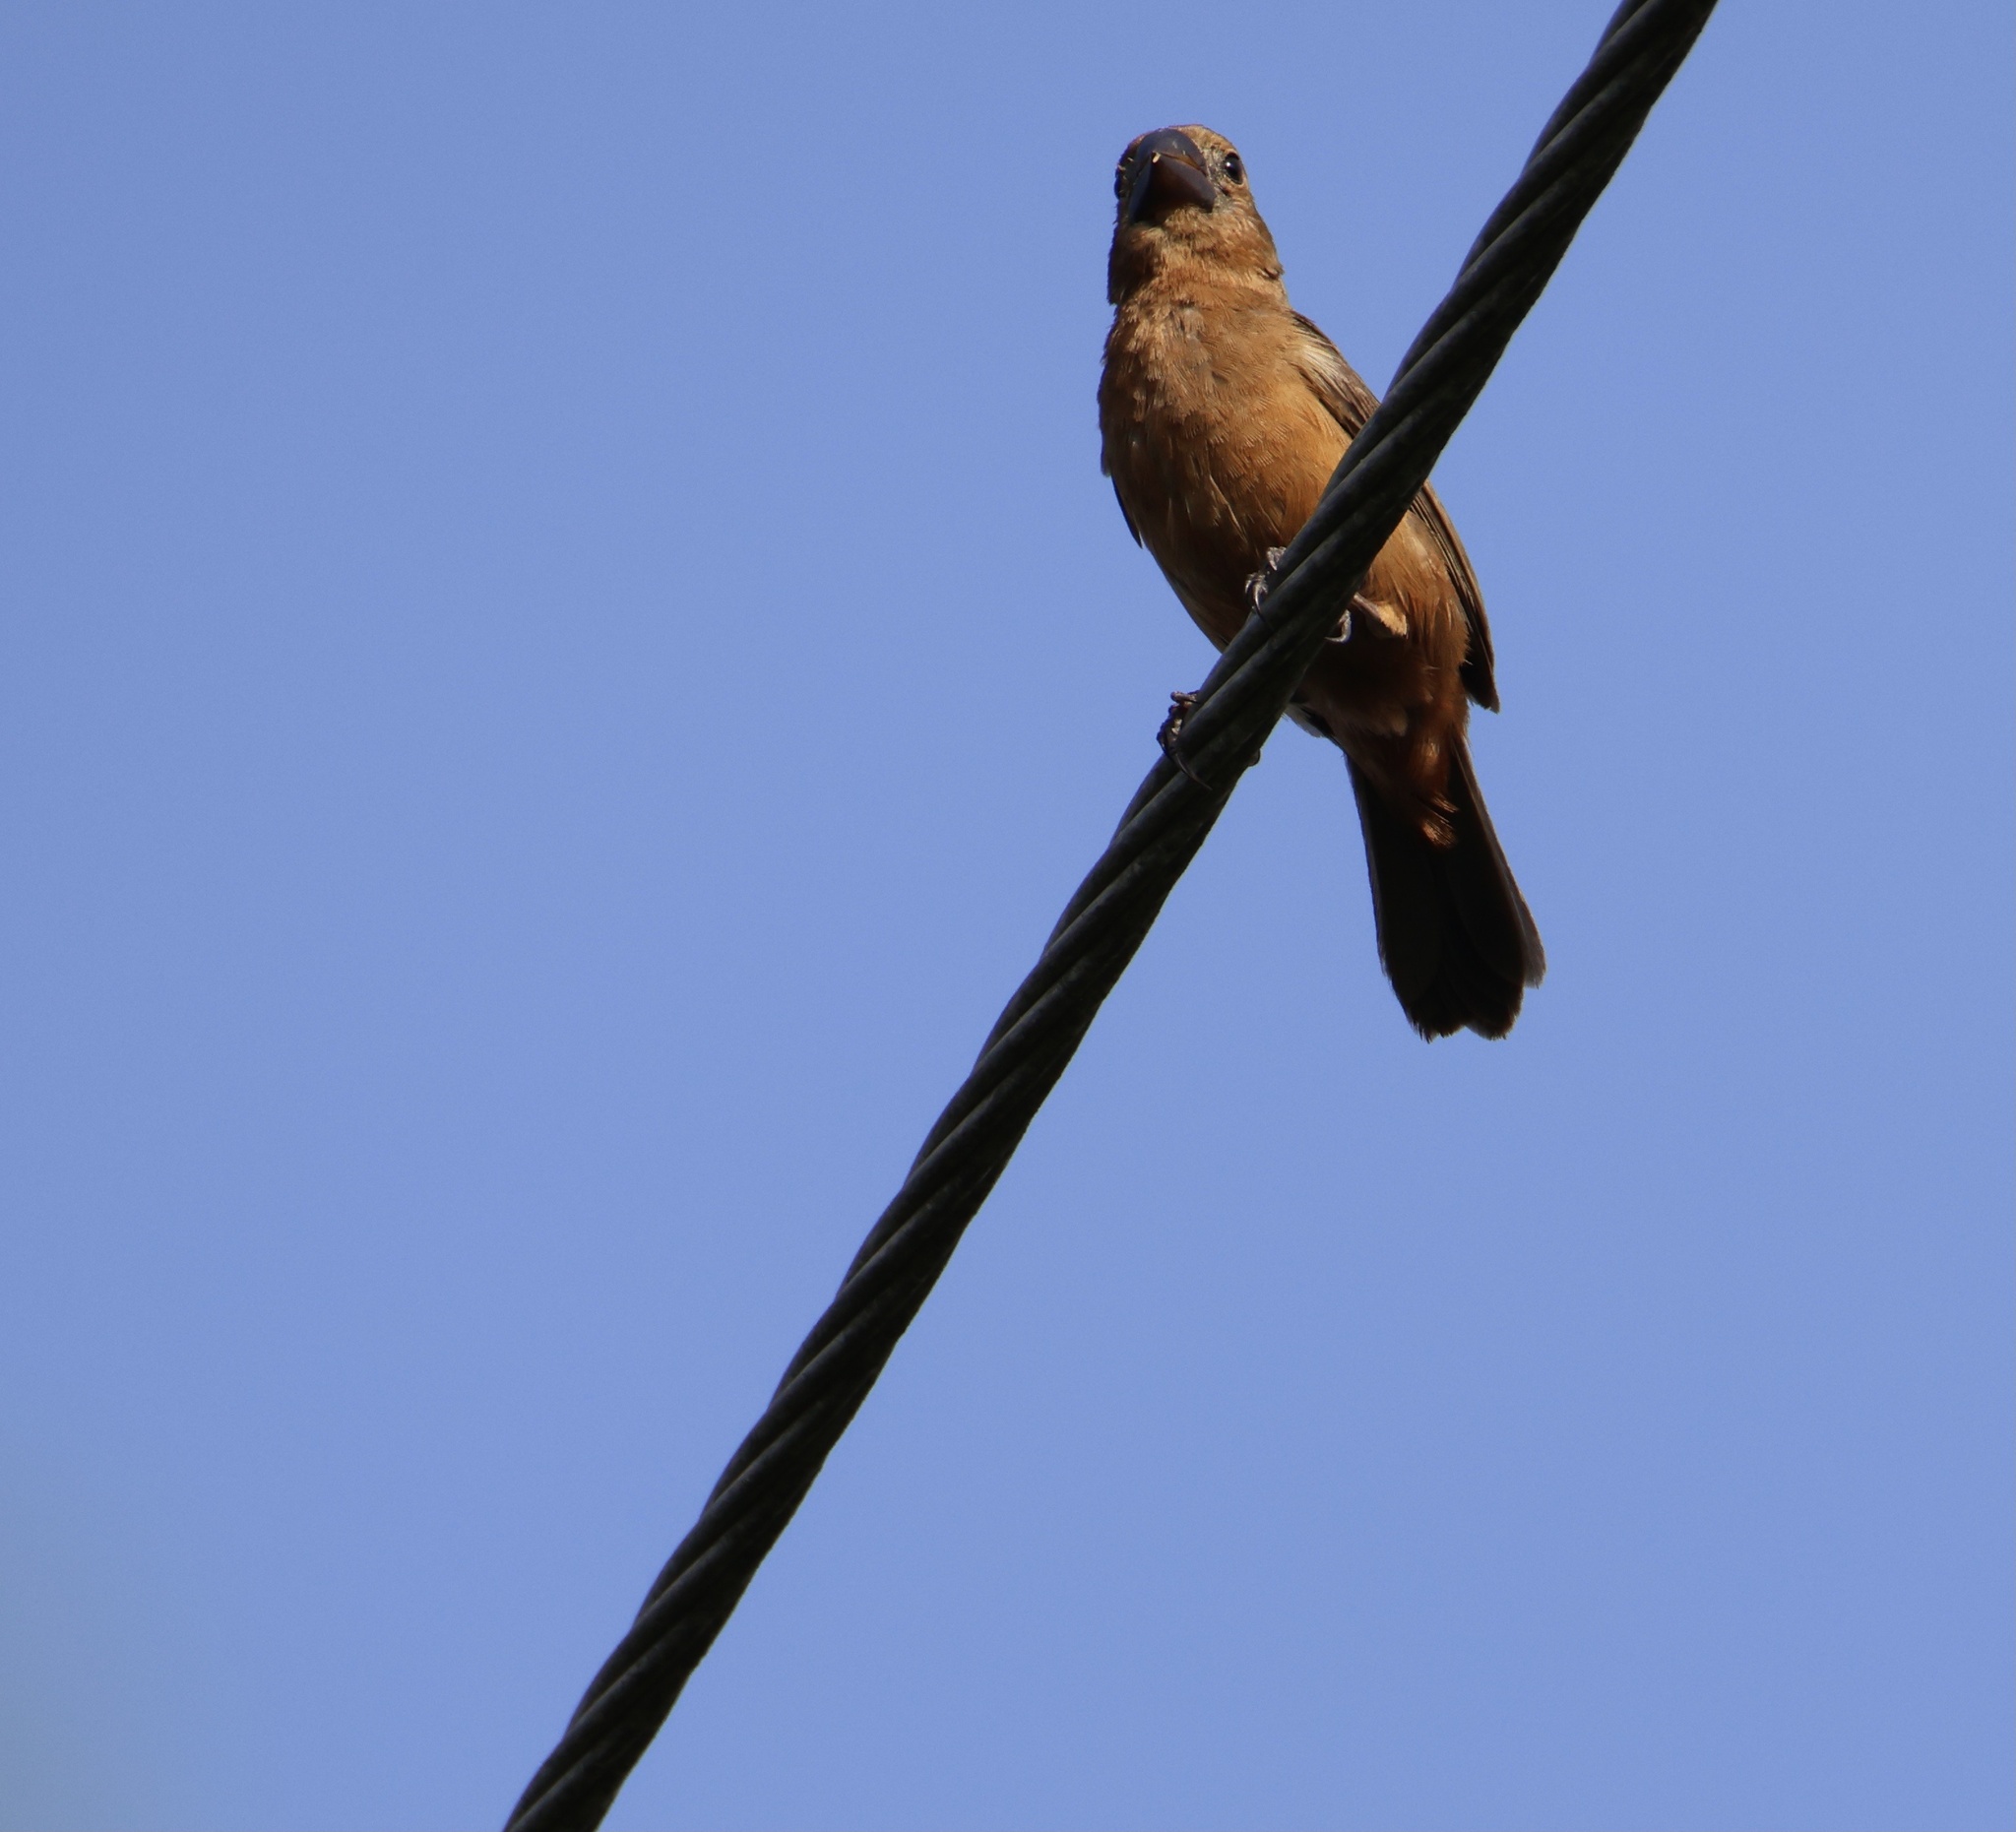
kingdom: Animalia
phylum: Chordata
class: Aves
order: Passeriformes
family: Thraupidae
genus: Sporophila
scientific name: Sporophila funerea
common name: Thick-billed seed-finch
